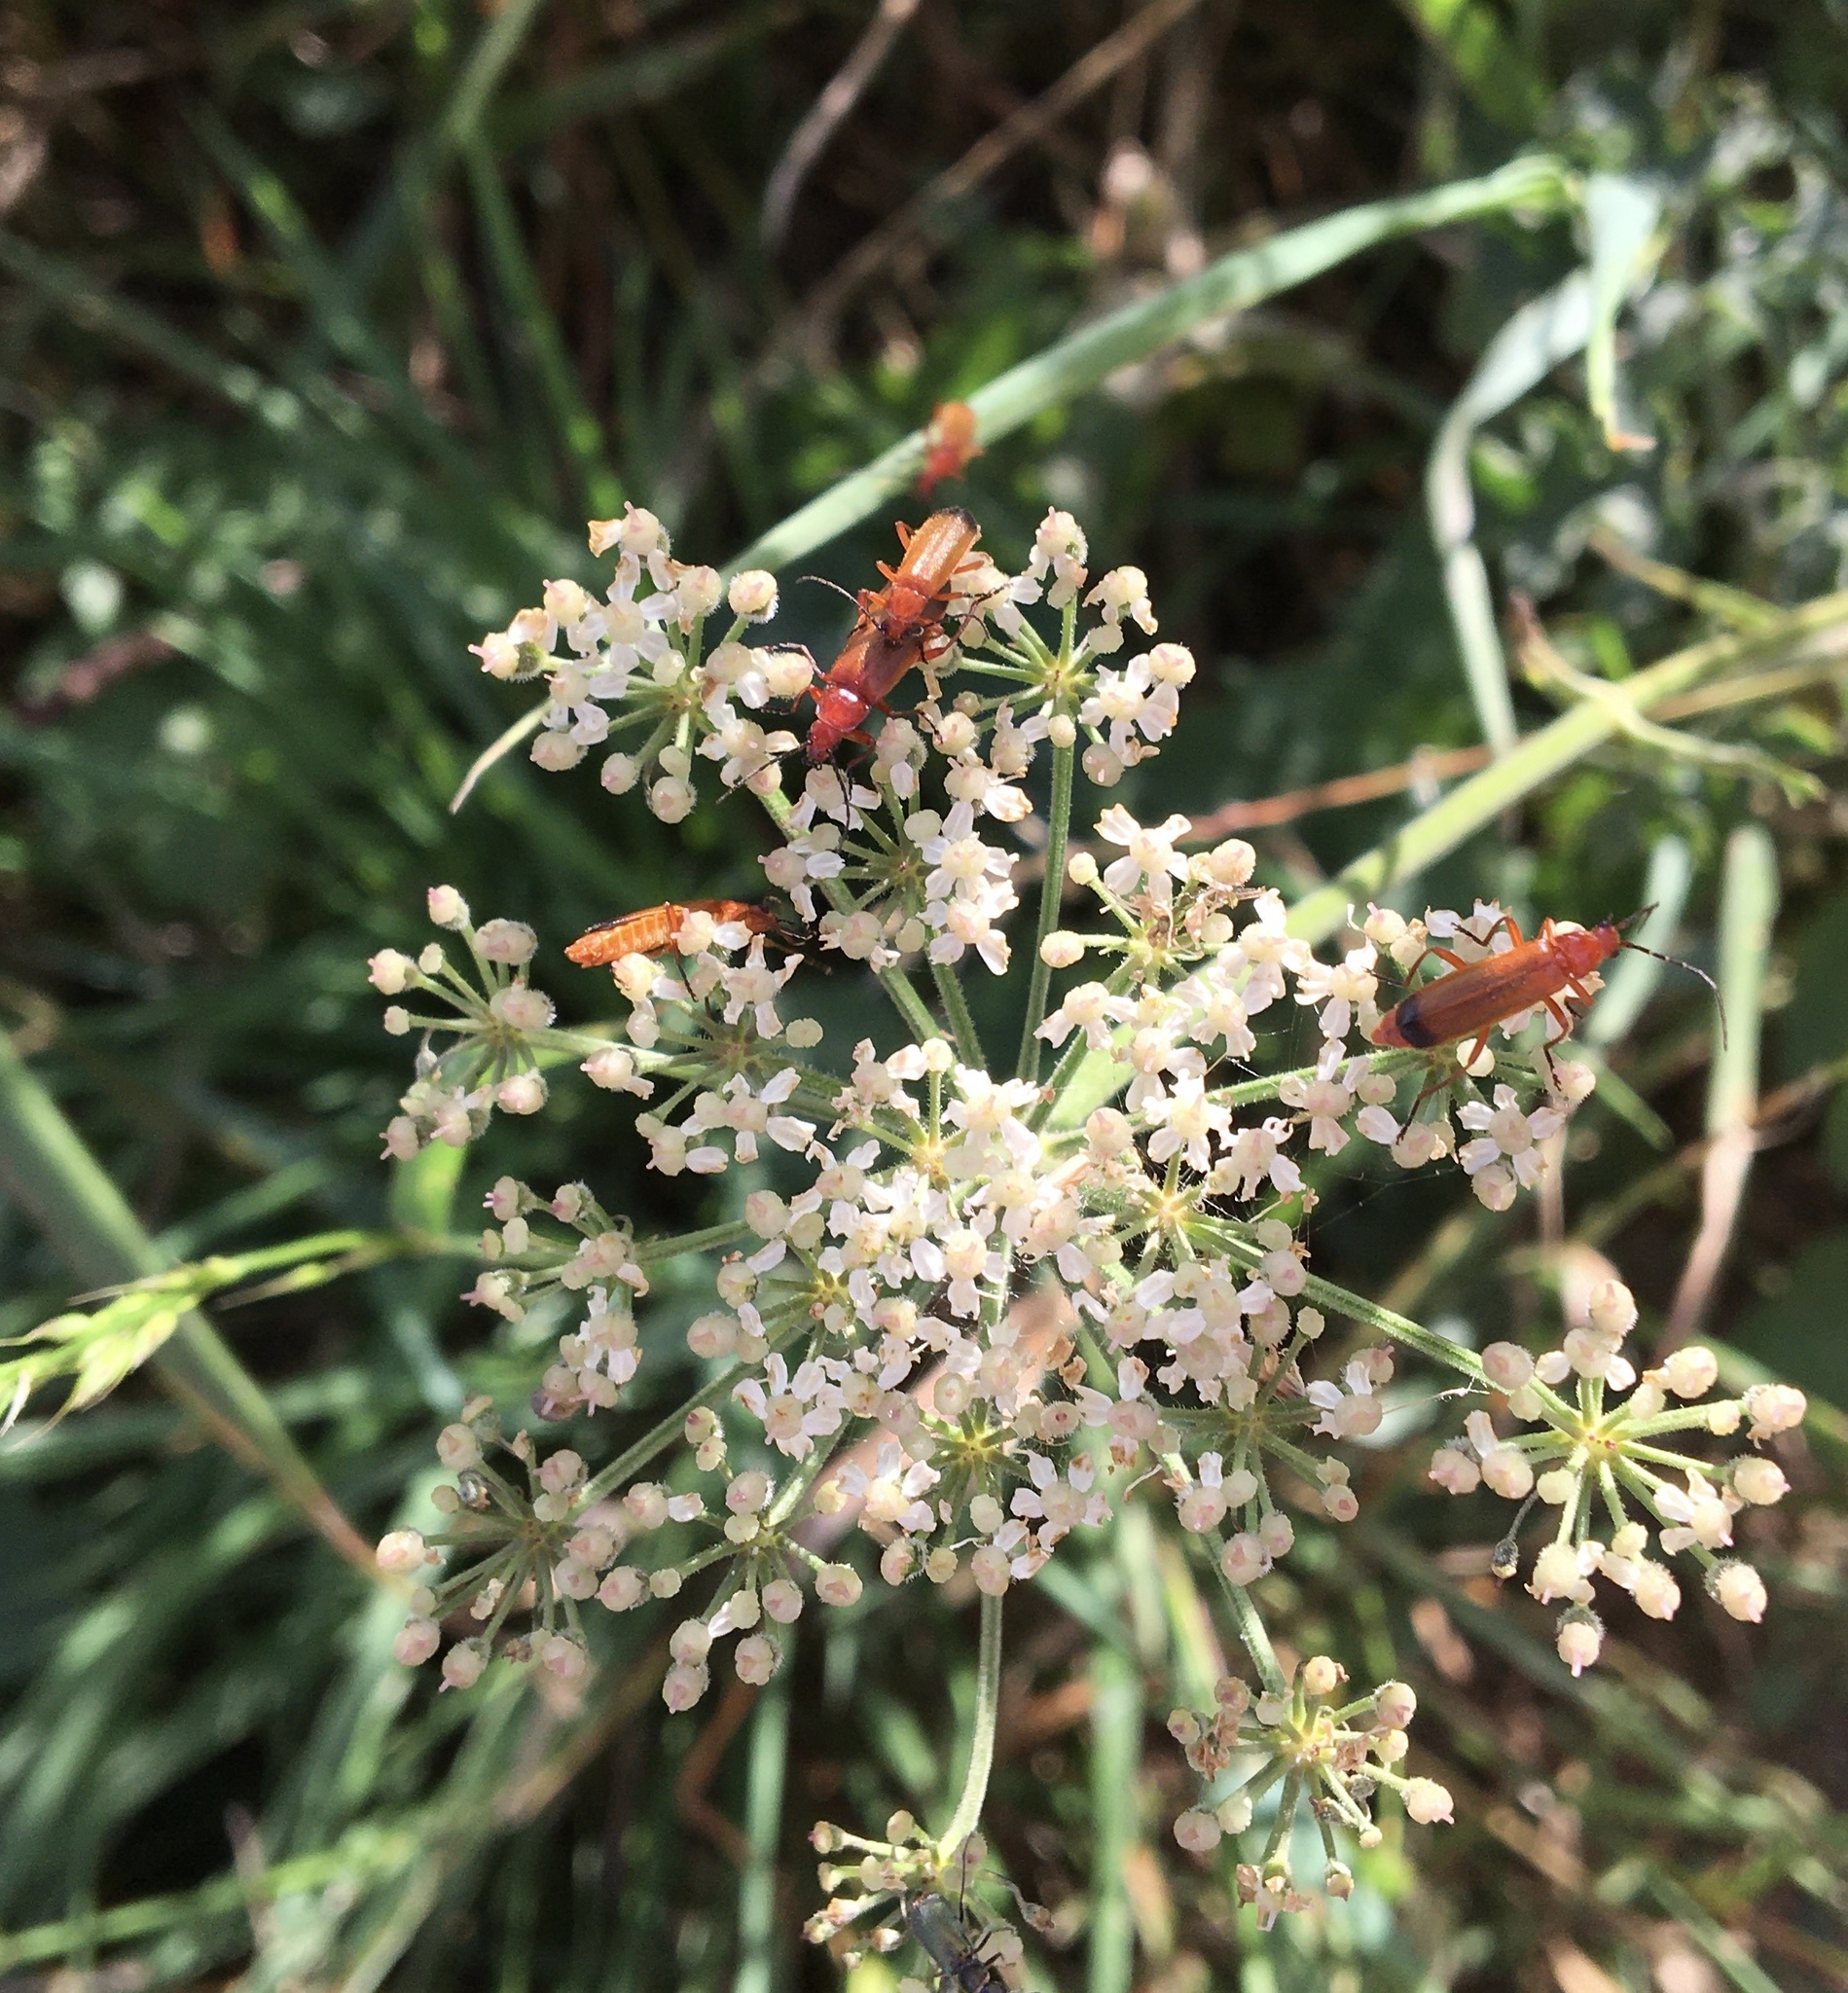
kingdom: Animalia
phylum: Arthropoda
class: Insecta
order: Coleoptera
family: Cantharidae
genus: Rhagonycha
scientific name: Rhagonycha fulva
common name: Common red soldier beetle
